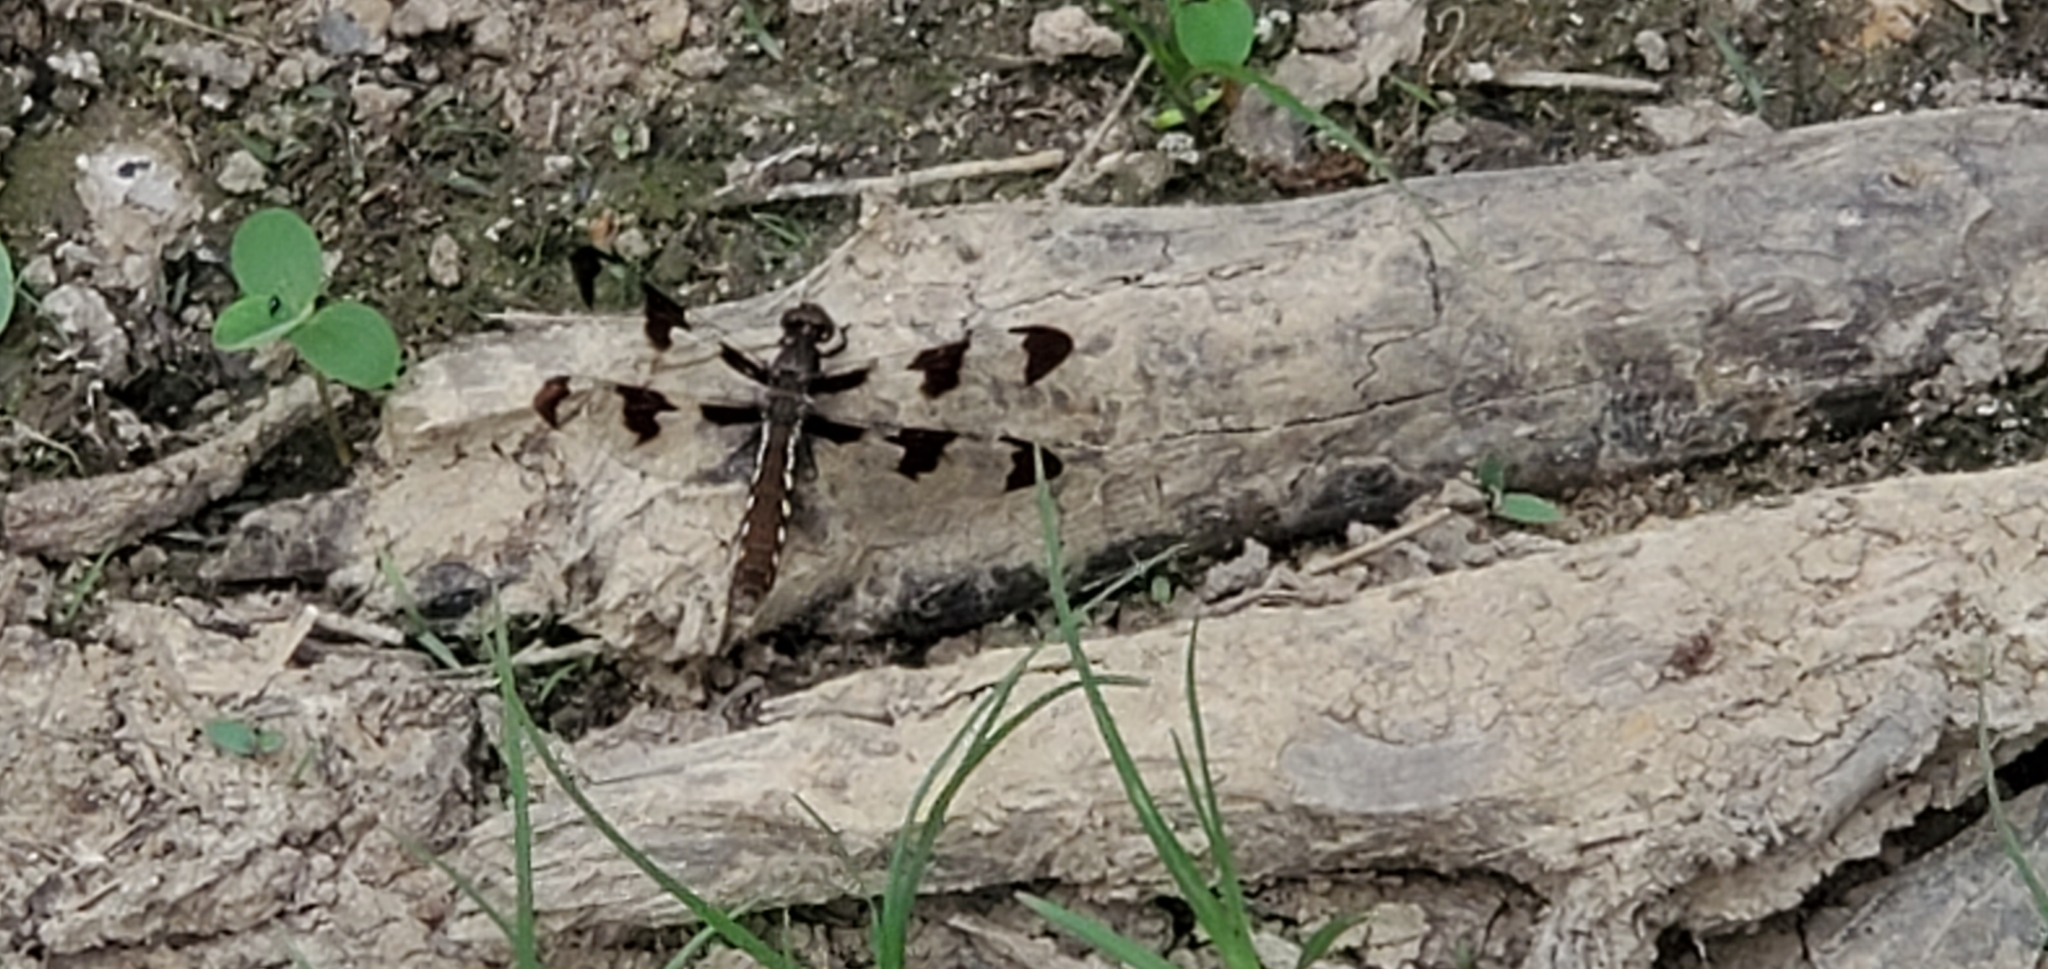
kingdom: Animalia
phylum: Arthropoda
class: Insecta
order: Odonata
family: Libellulidae
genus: Plathemis
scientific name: Plathemis lydia
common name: Common whitetail
